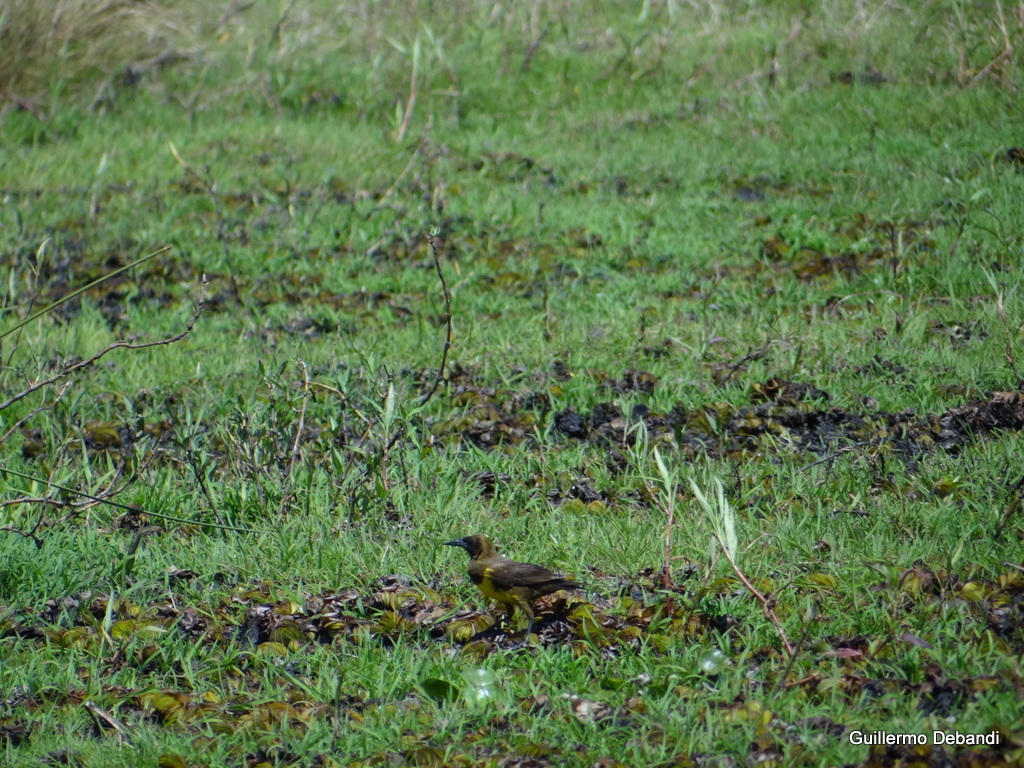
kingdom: Animalia
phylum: Chordata
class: Aves
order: Passeriformes
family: Icteridae
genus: Pseudoleistes
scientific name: Pseudoleistes guirahuro
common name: Yellow-rumped marshbird
